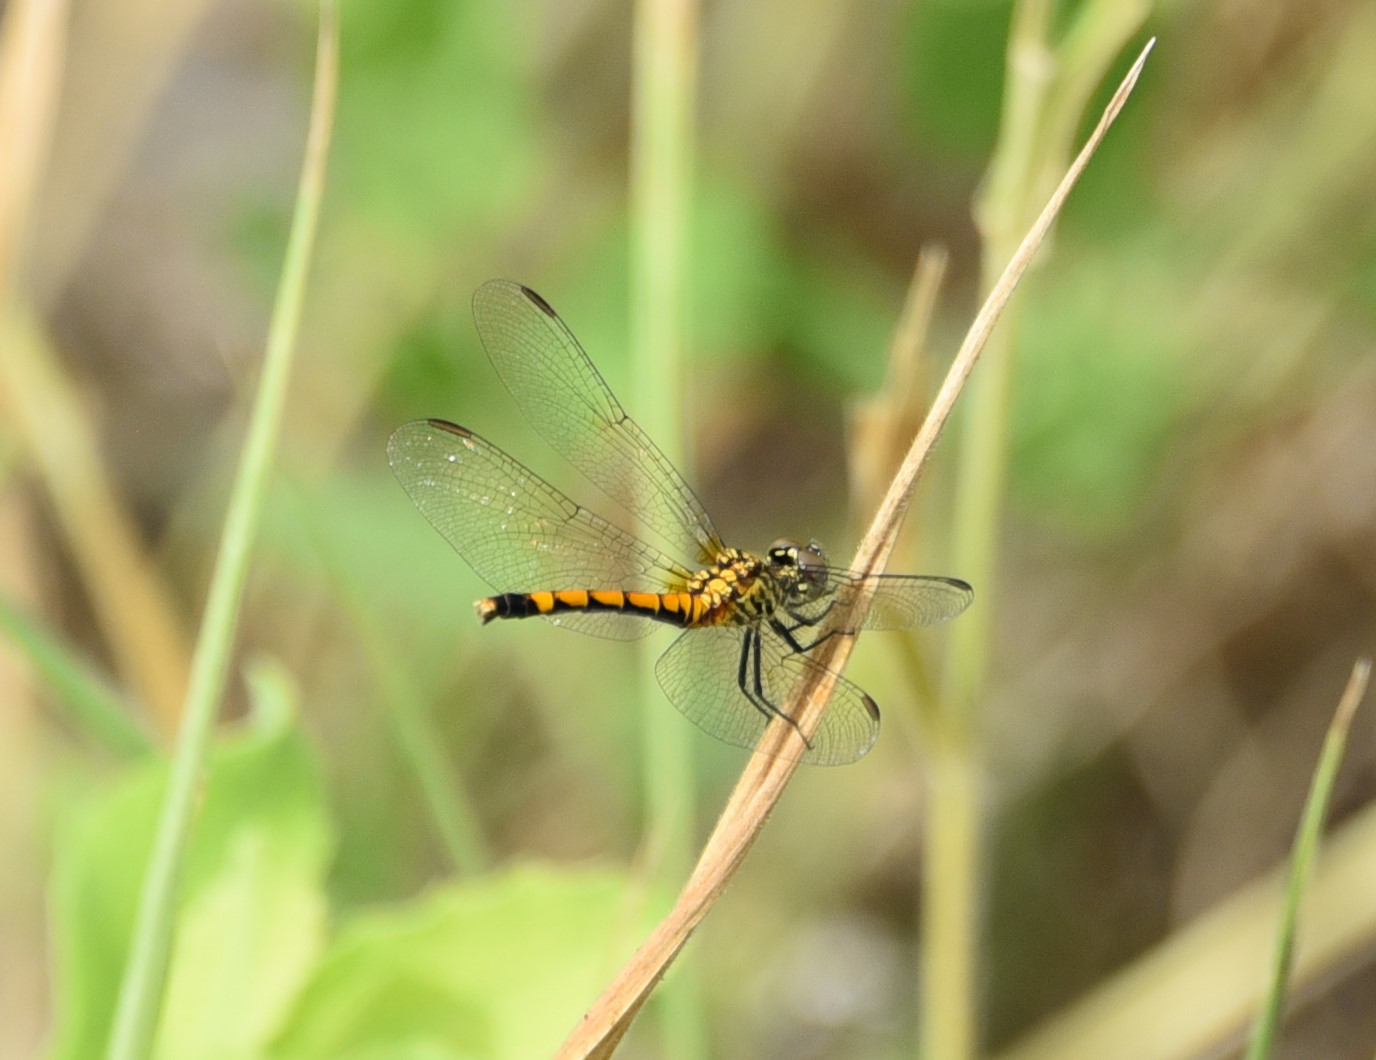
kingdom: Animalia
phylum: Arthropoda
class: Insecta
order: Odonata
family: Libellulidae
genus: Erythrodiplax
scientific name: Erythrodiplax berenice
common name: Seaside dragonlet
